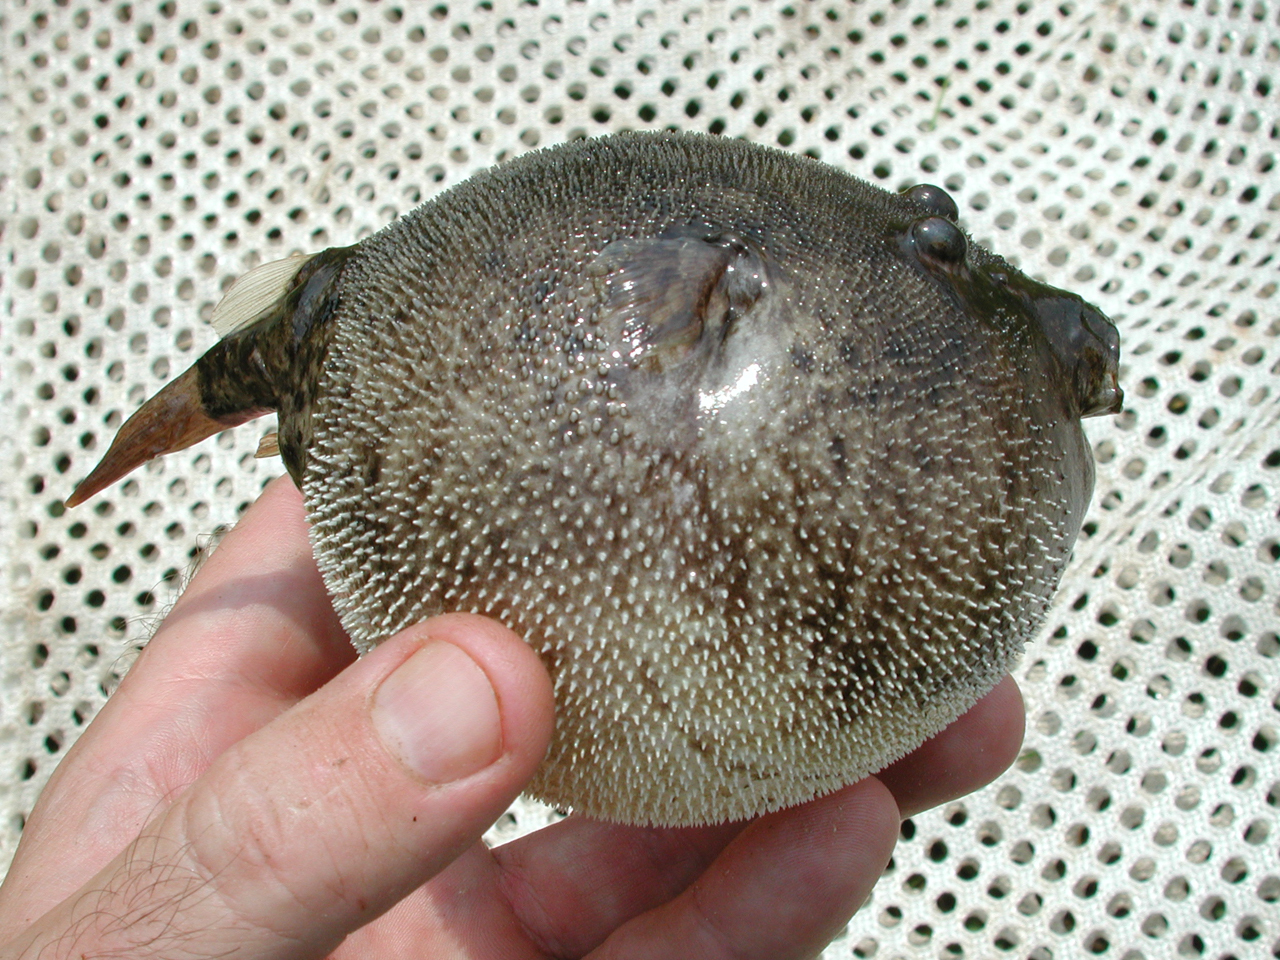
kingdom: Animalia
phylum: Chordata
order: Tetraodontiformes
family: Tetraodontidae
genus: Tetraodon
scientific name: Tetraodon miurus
